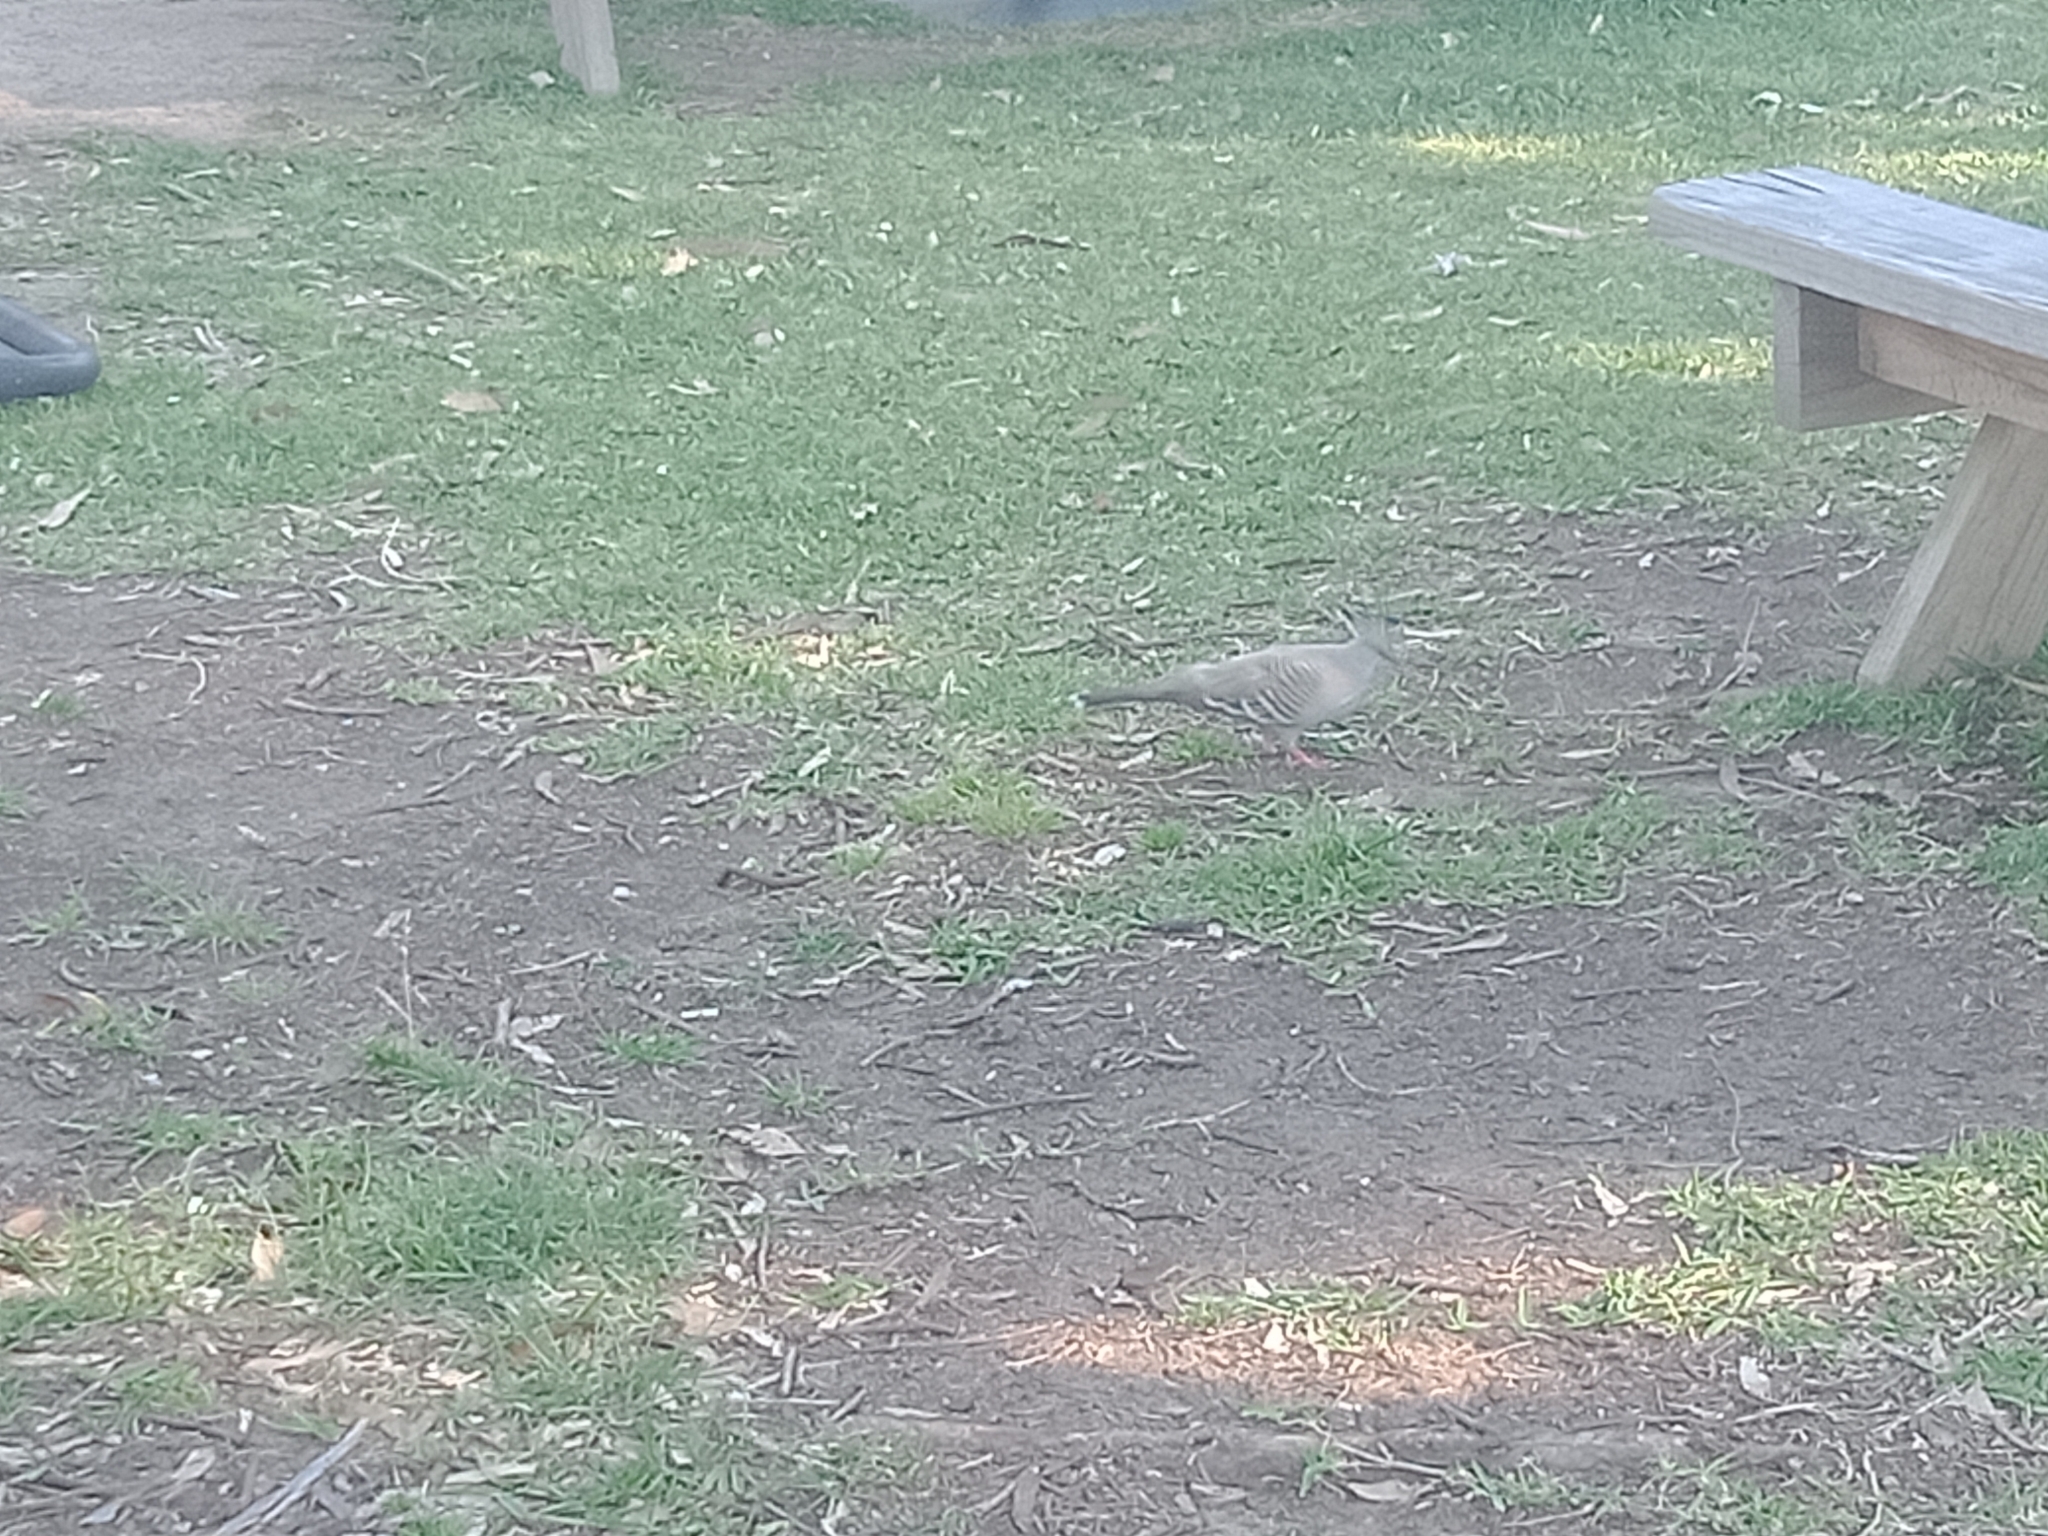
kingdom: Animalia
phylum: Chordata
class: Aves
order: Columbiformes
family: Columbidae
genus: Ocyphaps
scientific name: Ocyphaps lophotes
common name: Crested pigeon
